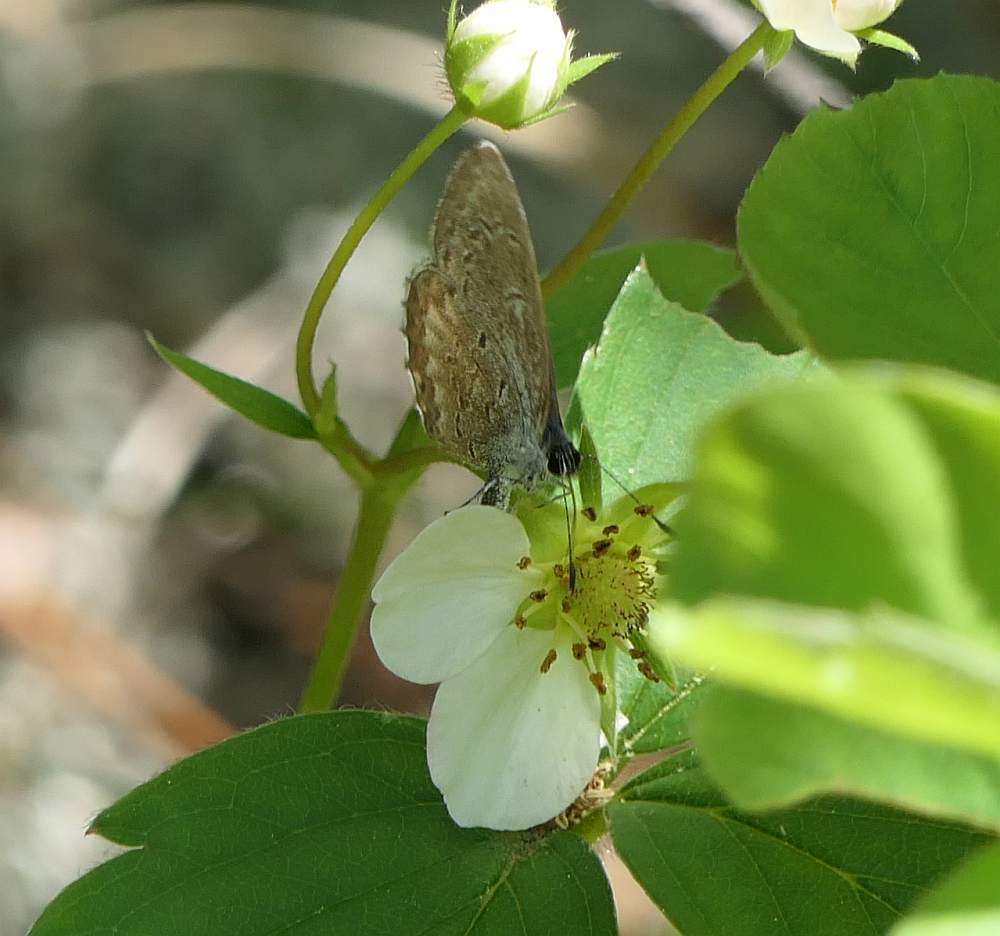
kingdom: Animalia
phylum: Arthropoda
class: Insecta
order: Lepidoptera
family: Lycaenidae
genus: Celastrina
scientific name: Celastrina lucia
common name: Lucia azure
